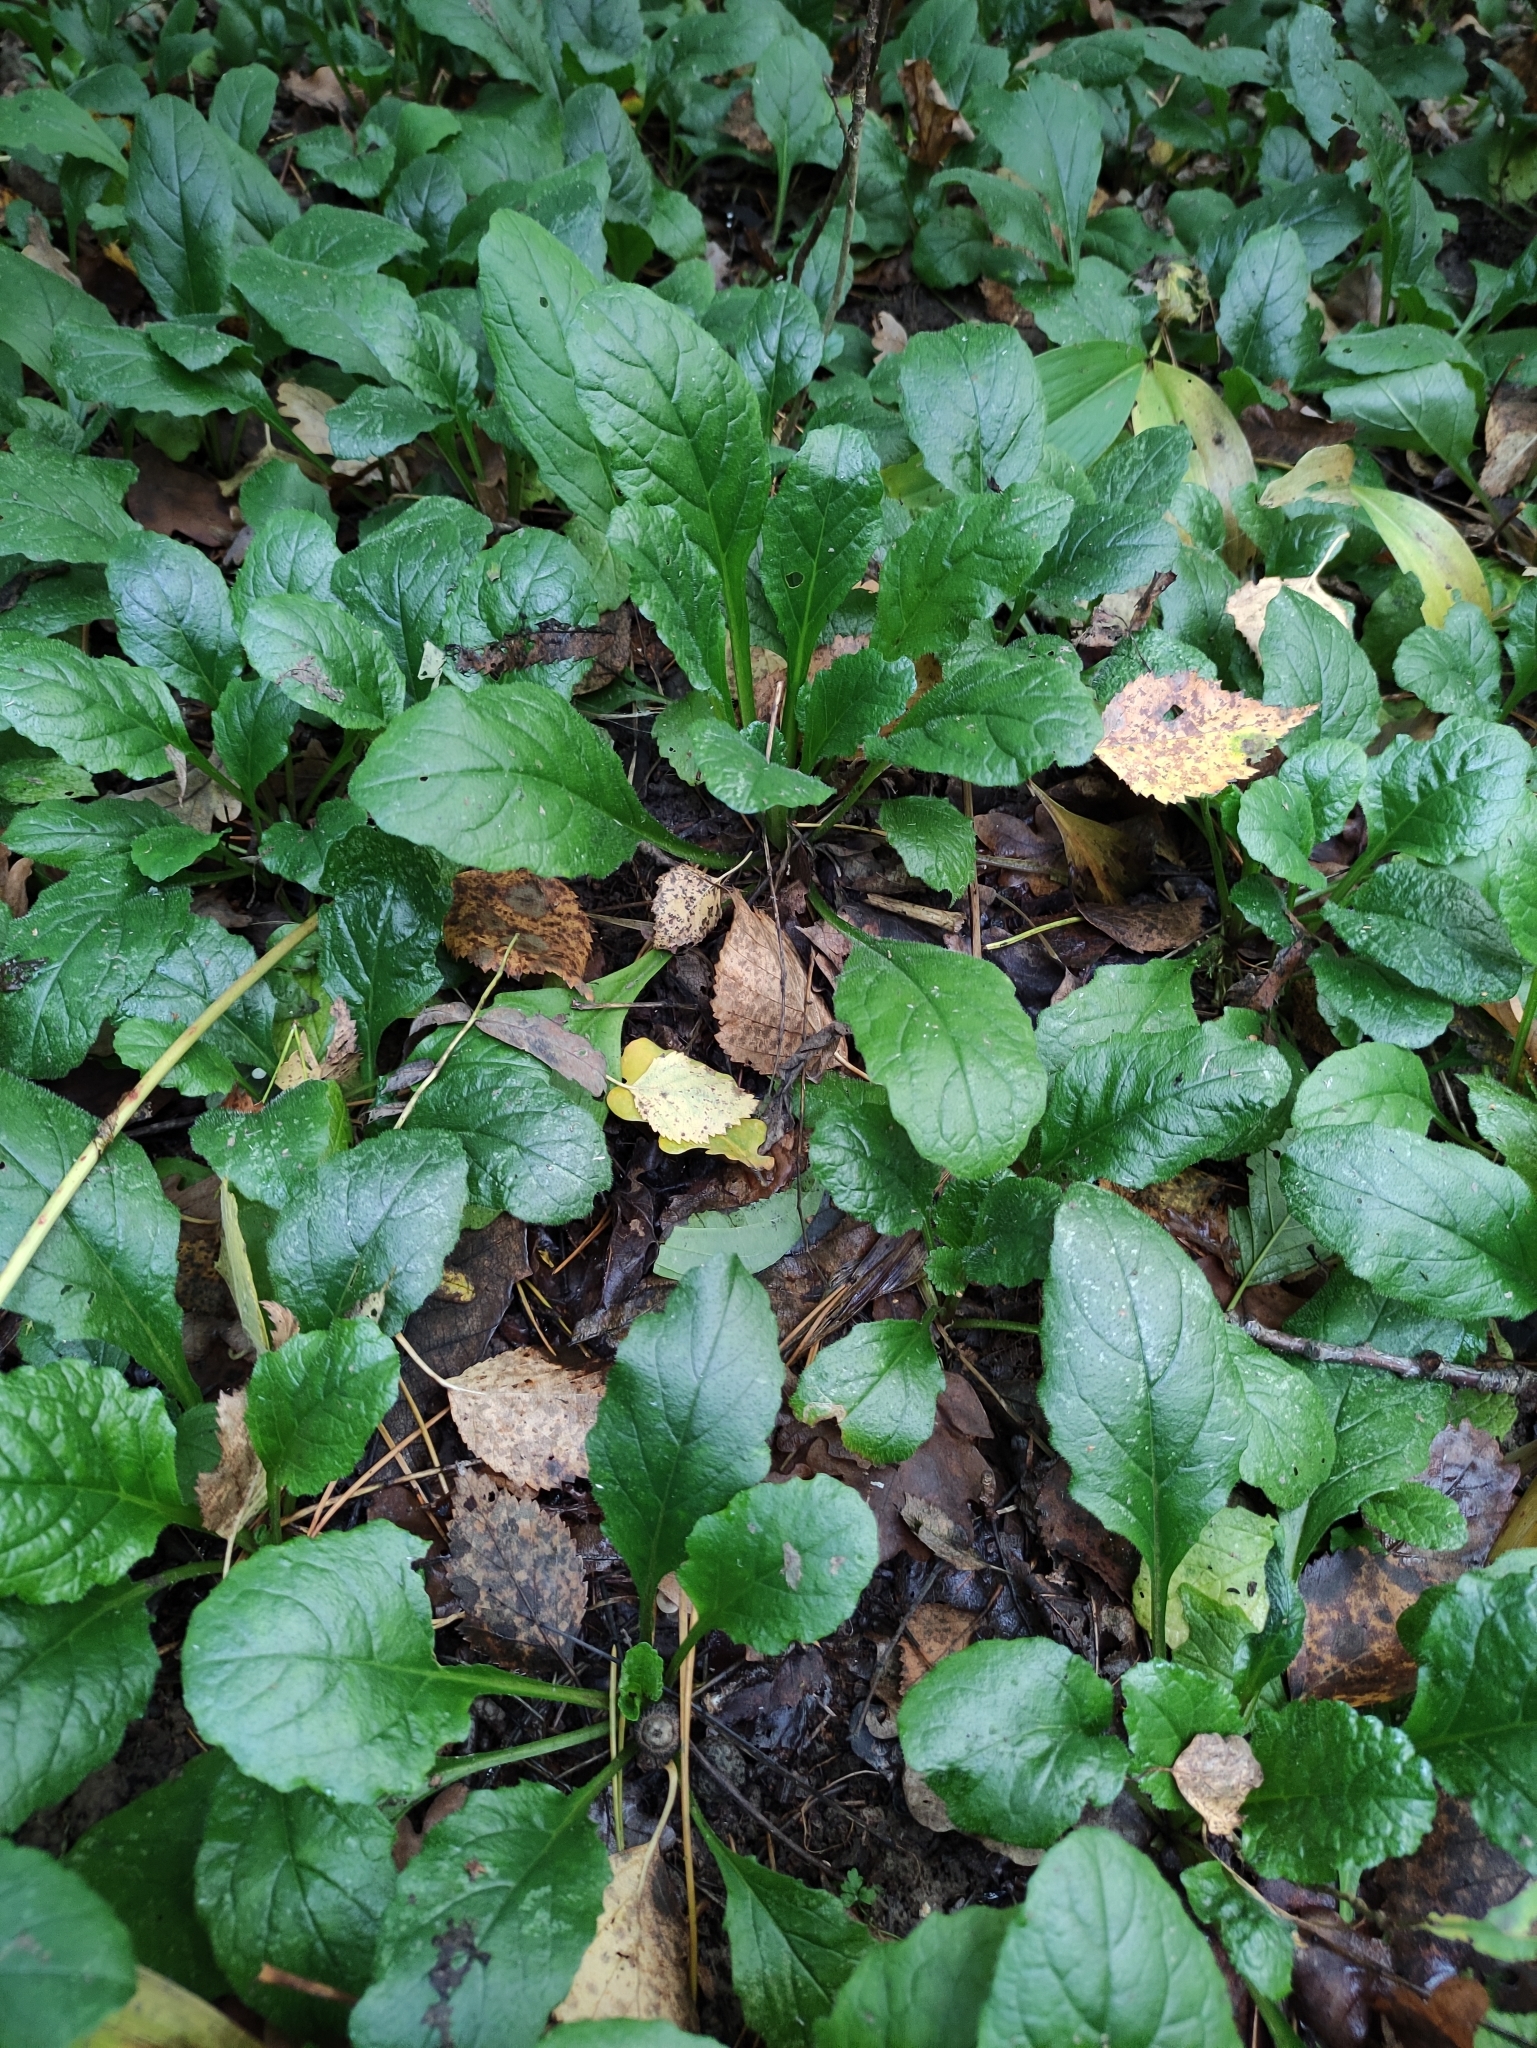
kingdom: Plantae
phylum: Tracheophyta
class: Magnoliopsida
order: Lamiales
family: Lamiaceae
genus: Ajuga
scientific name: Ajuga reptans
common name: Bugle
